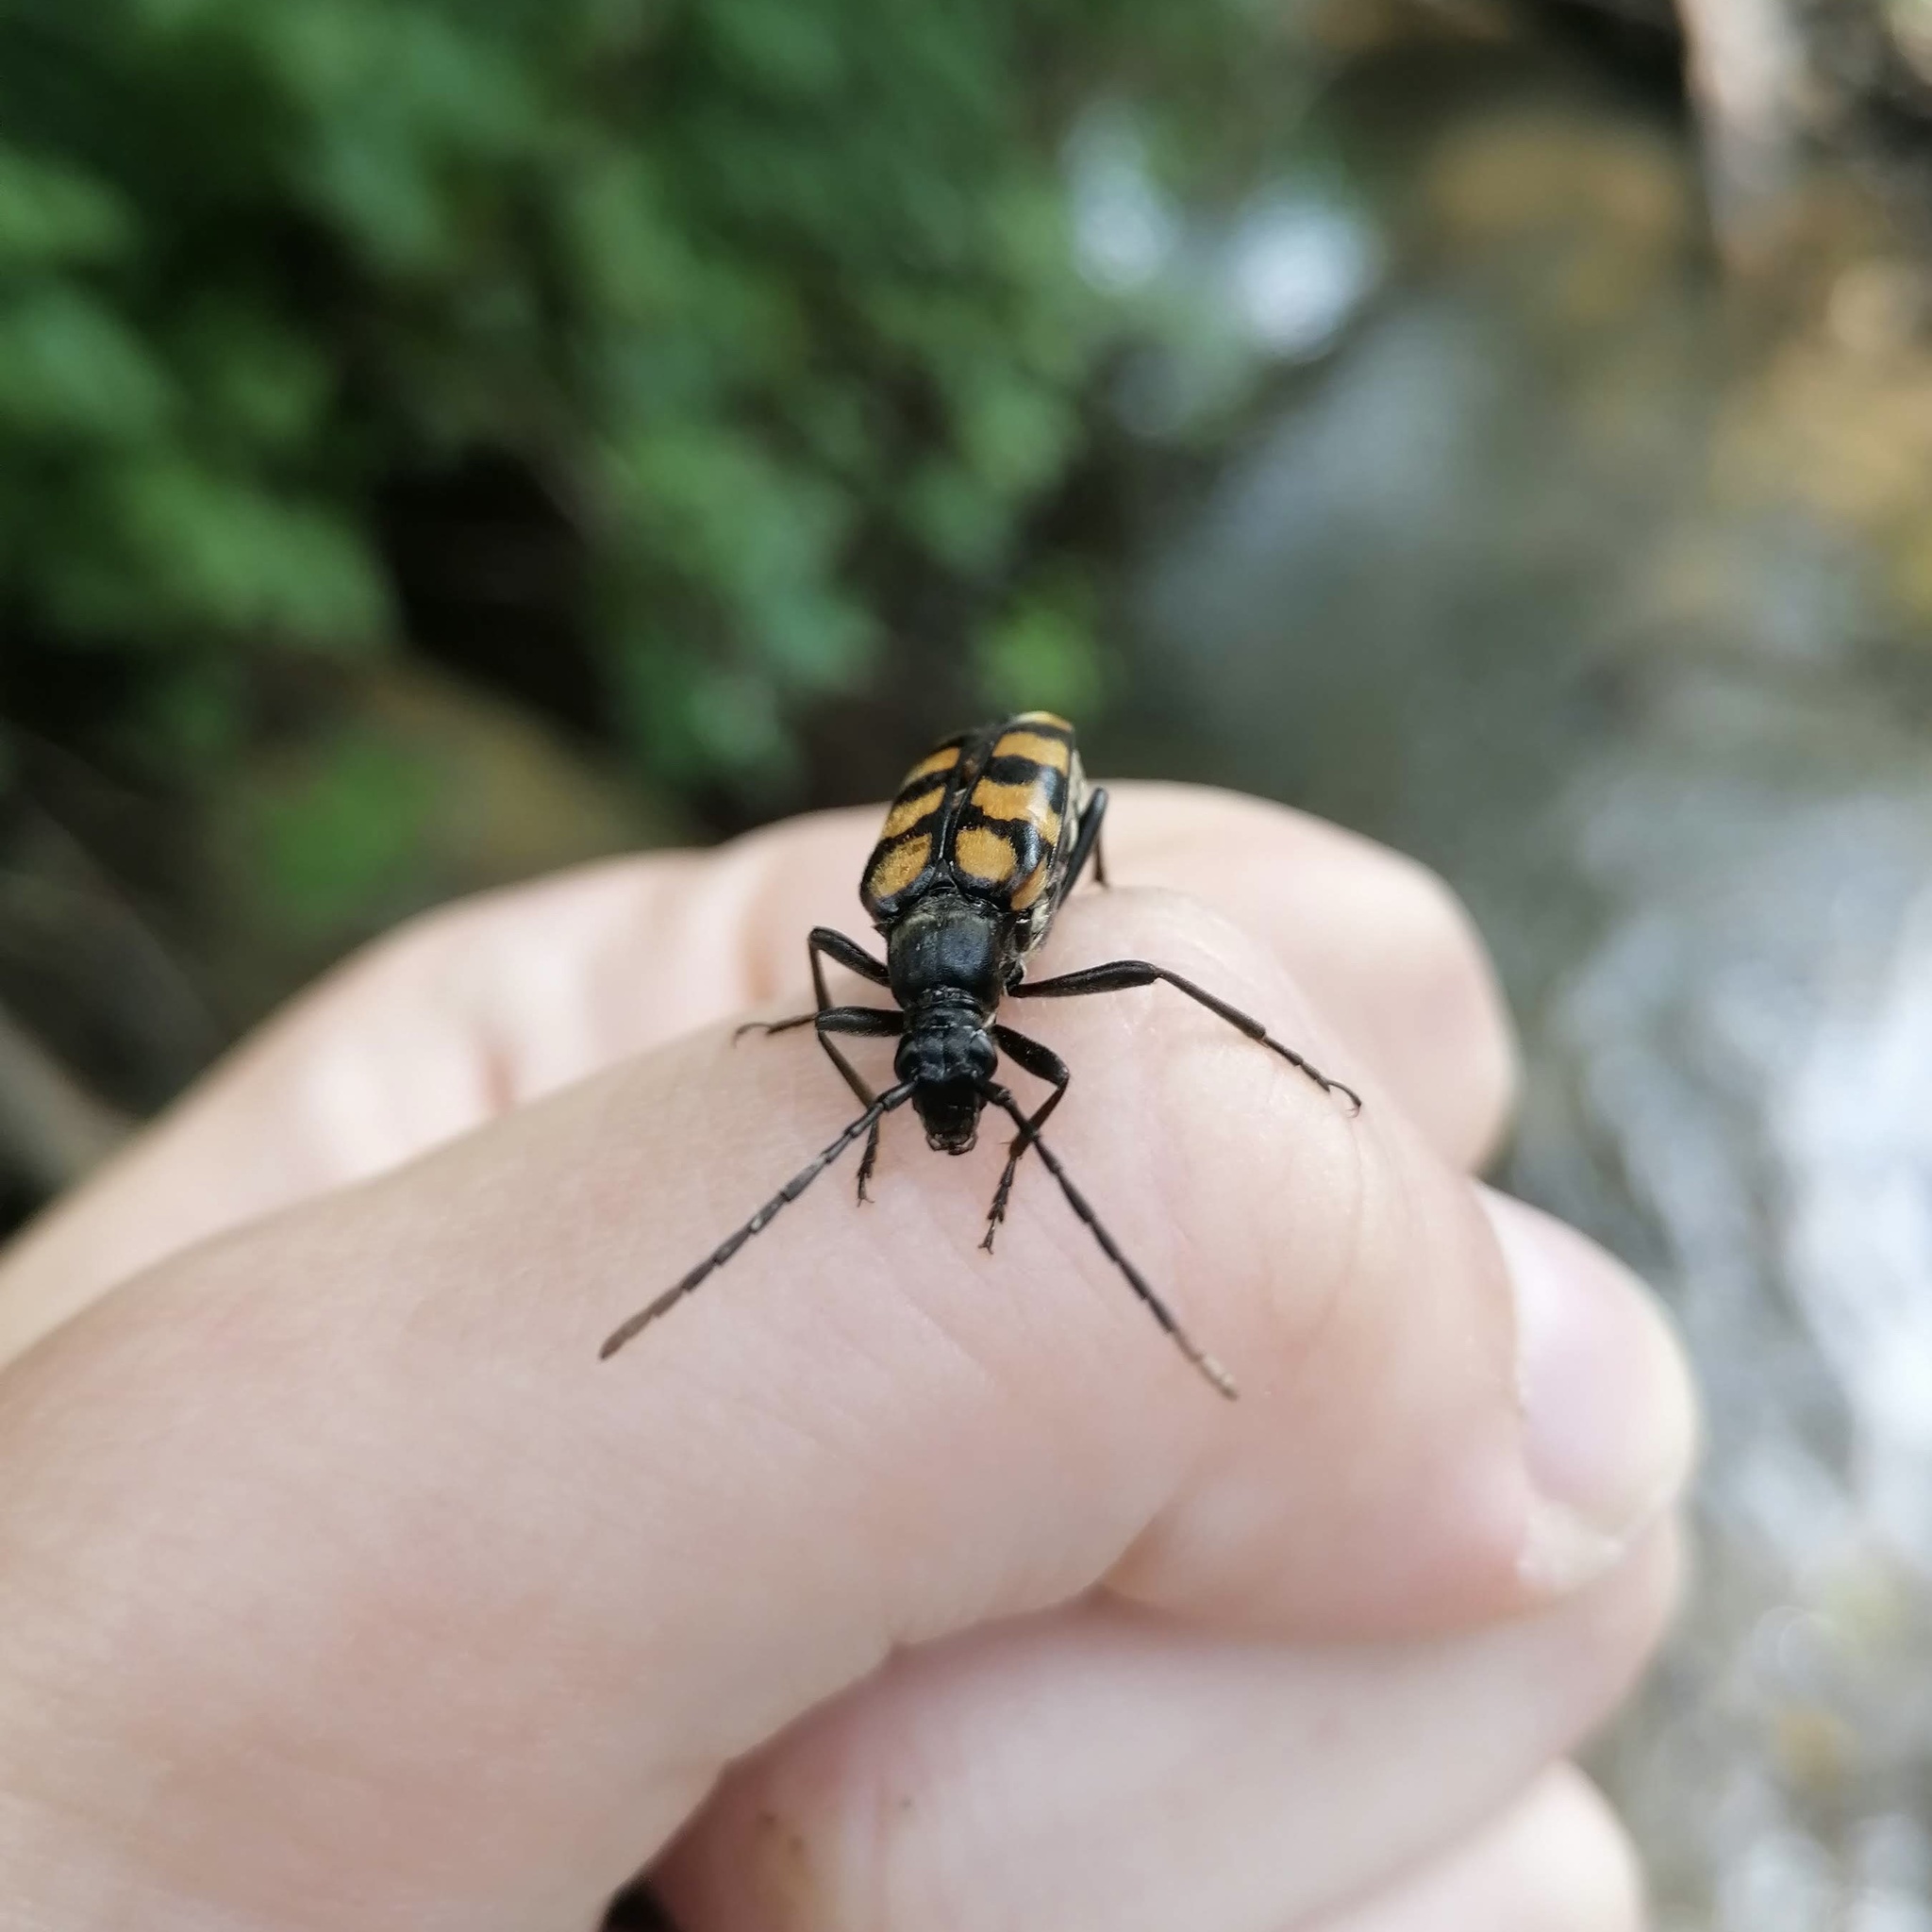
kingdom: Animalia
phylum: Arthropoda
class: Insecta
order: Coleoptera
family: Cerambycidae
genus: Leptura
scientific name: Leptura quadrifasciata
